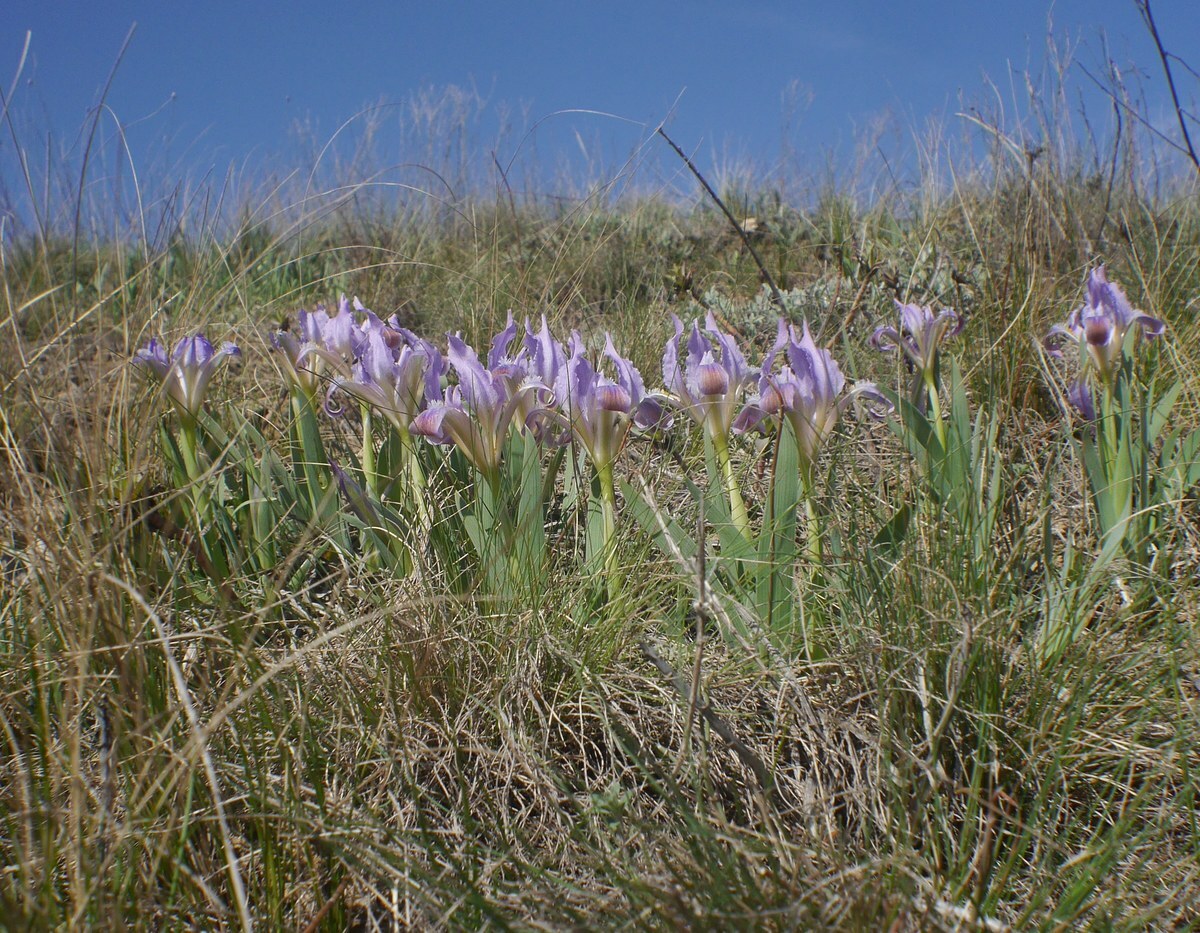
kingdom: Plantae
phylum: Tracheophyta
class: Liliopsida
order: Asparagales
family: Iridaceae
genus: Iris
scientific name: Iris pumila
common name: Dwarf iris
